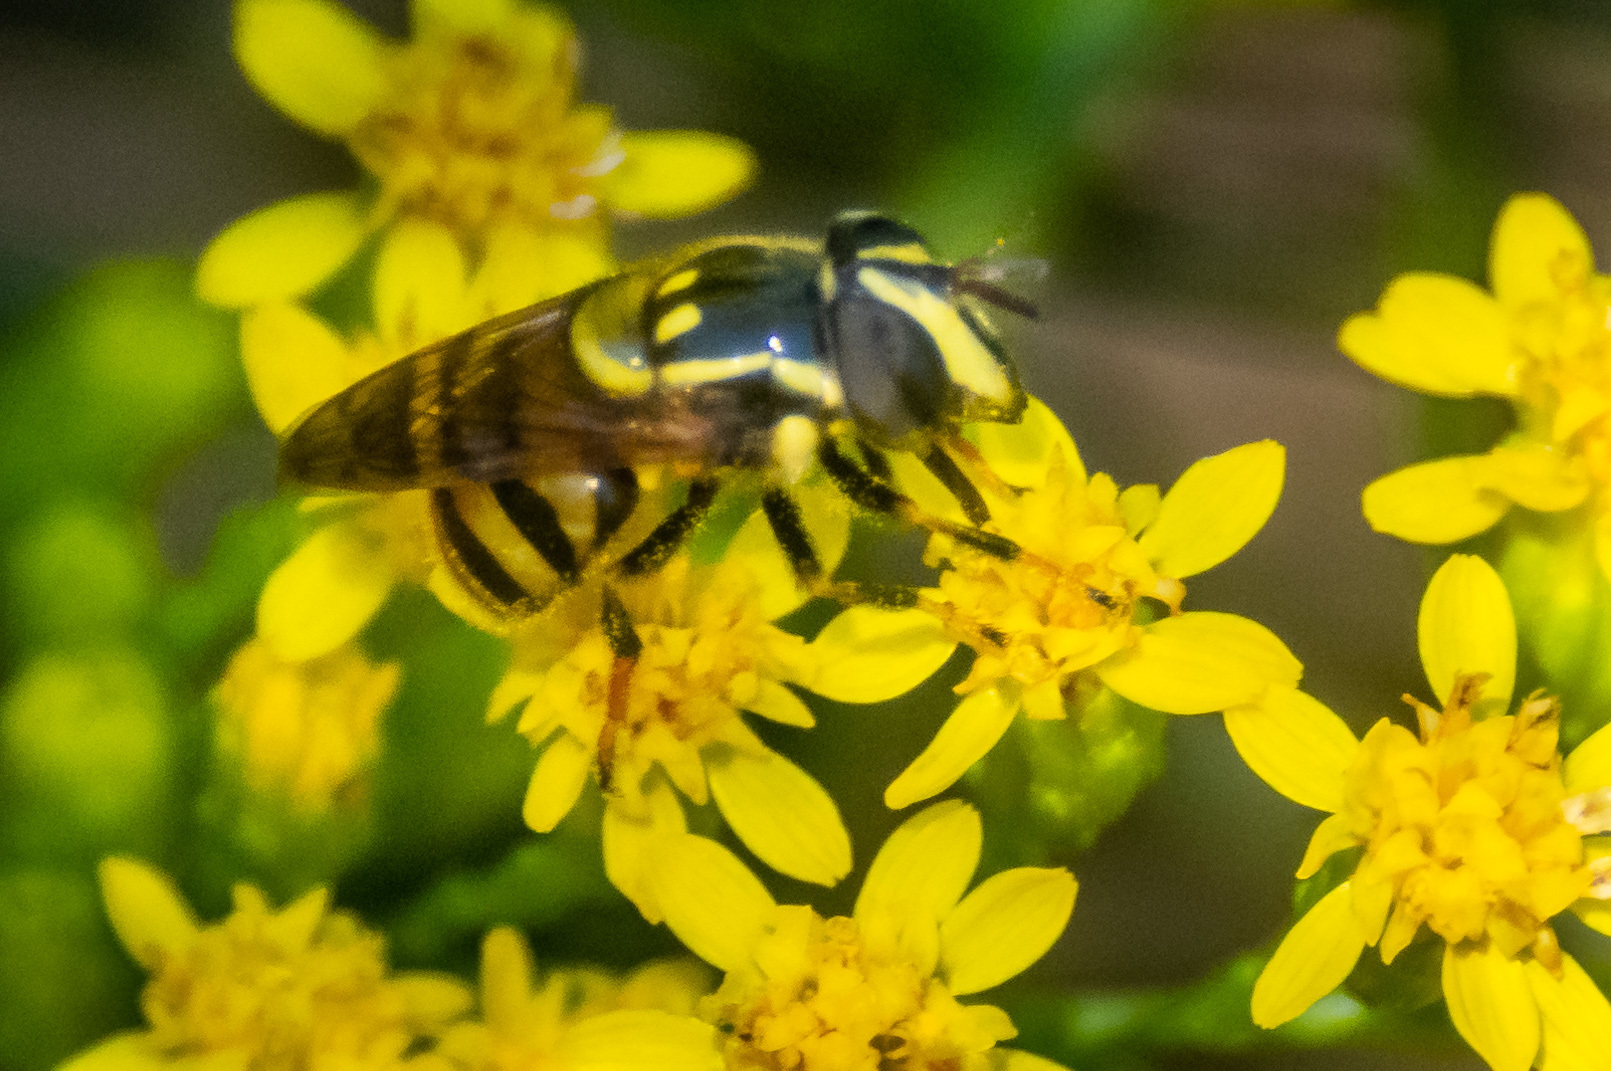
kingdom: Animalia
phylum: Arthropoda
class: Insecta
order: Diptera
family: Syrphidae
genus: Copestylum
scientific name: Copestylum vittatum
